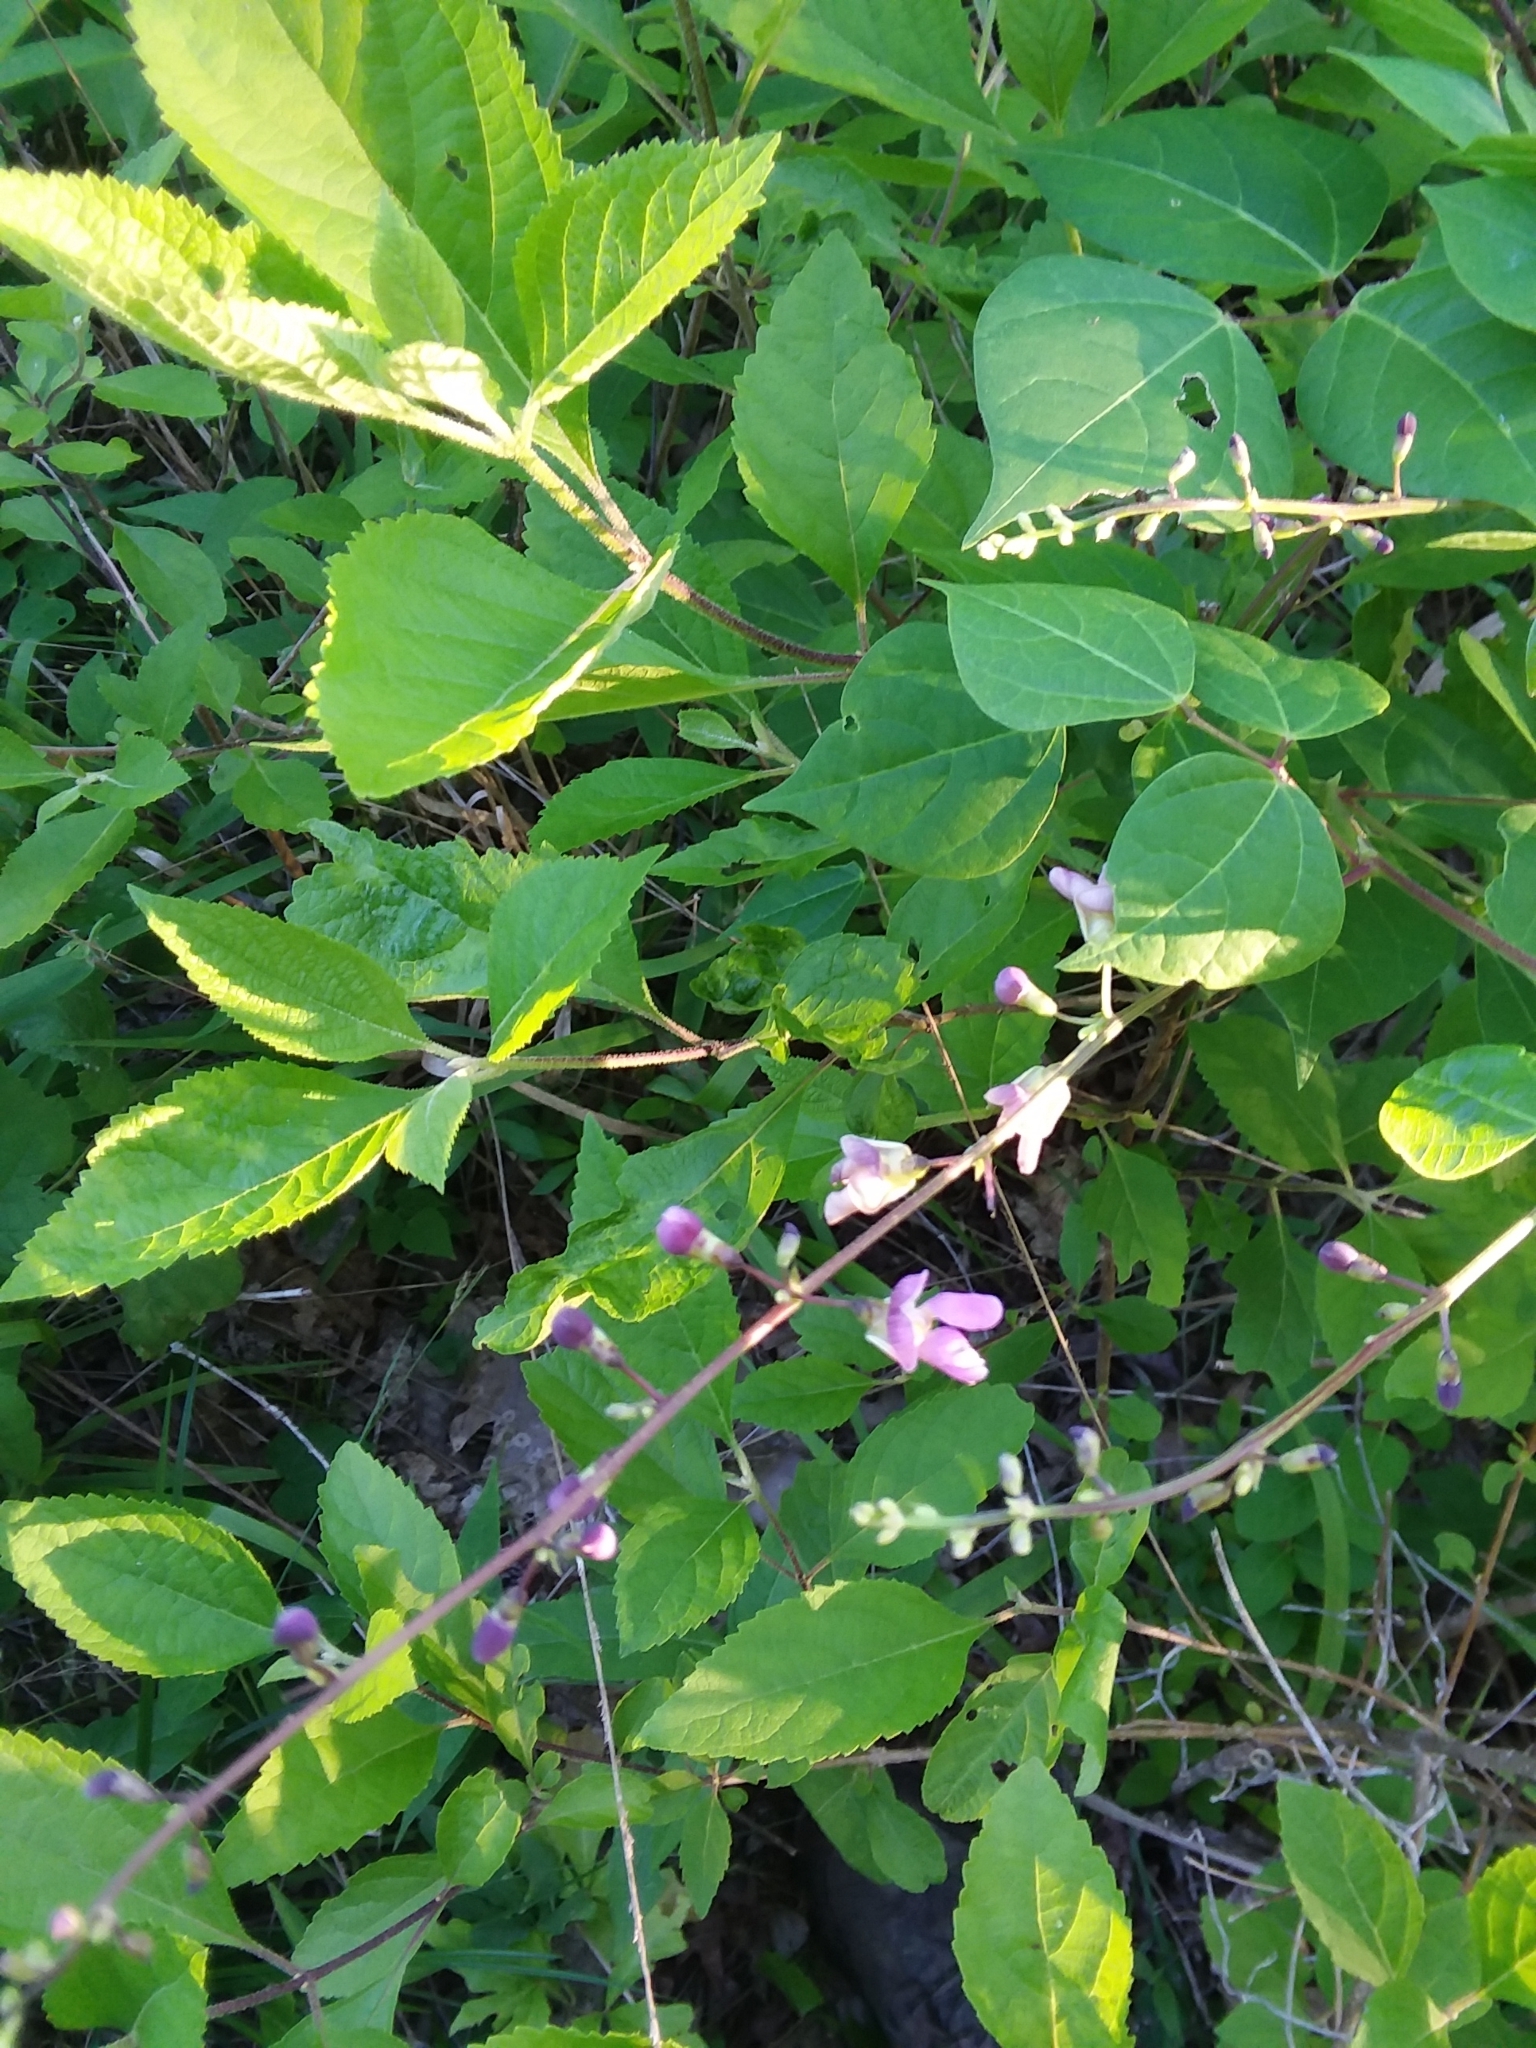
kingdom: Plantae
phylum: Tracheophyta
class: Magnoliopsida
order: Fabales
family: Fabaceae
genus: Phaseolus
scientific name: Phaseolus polystachios
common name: Thicket bean
